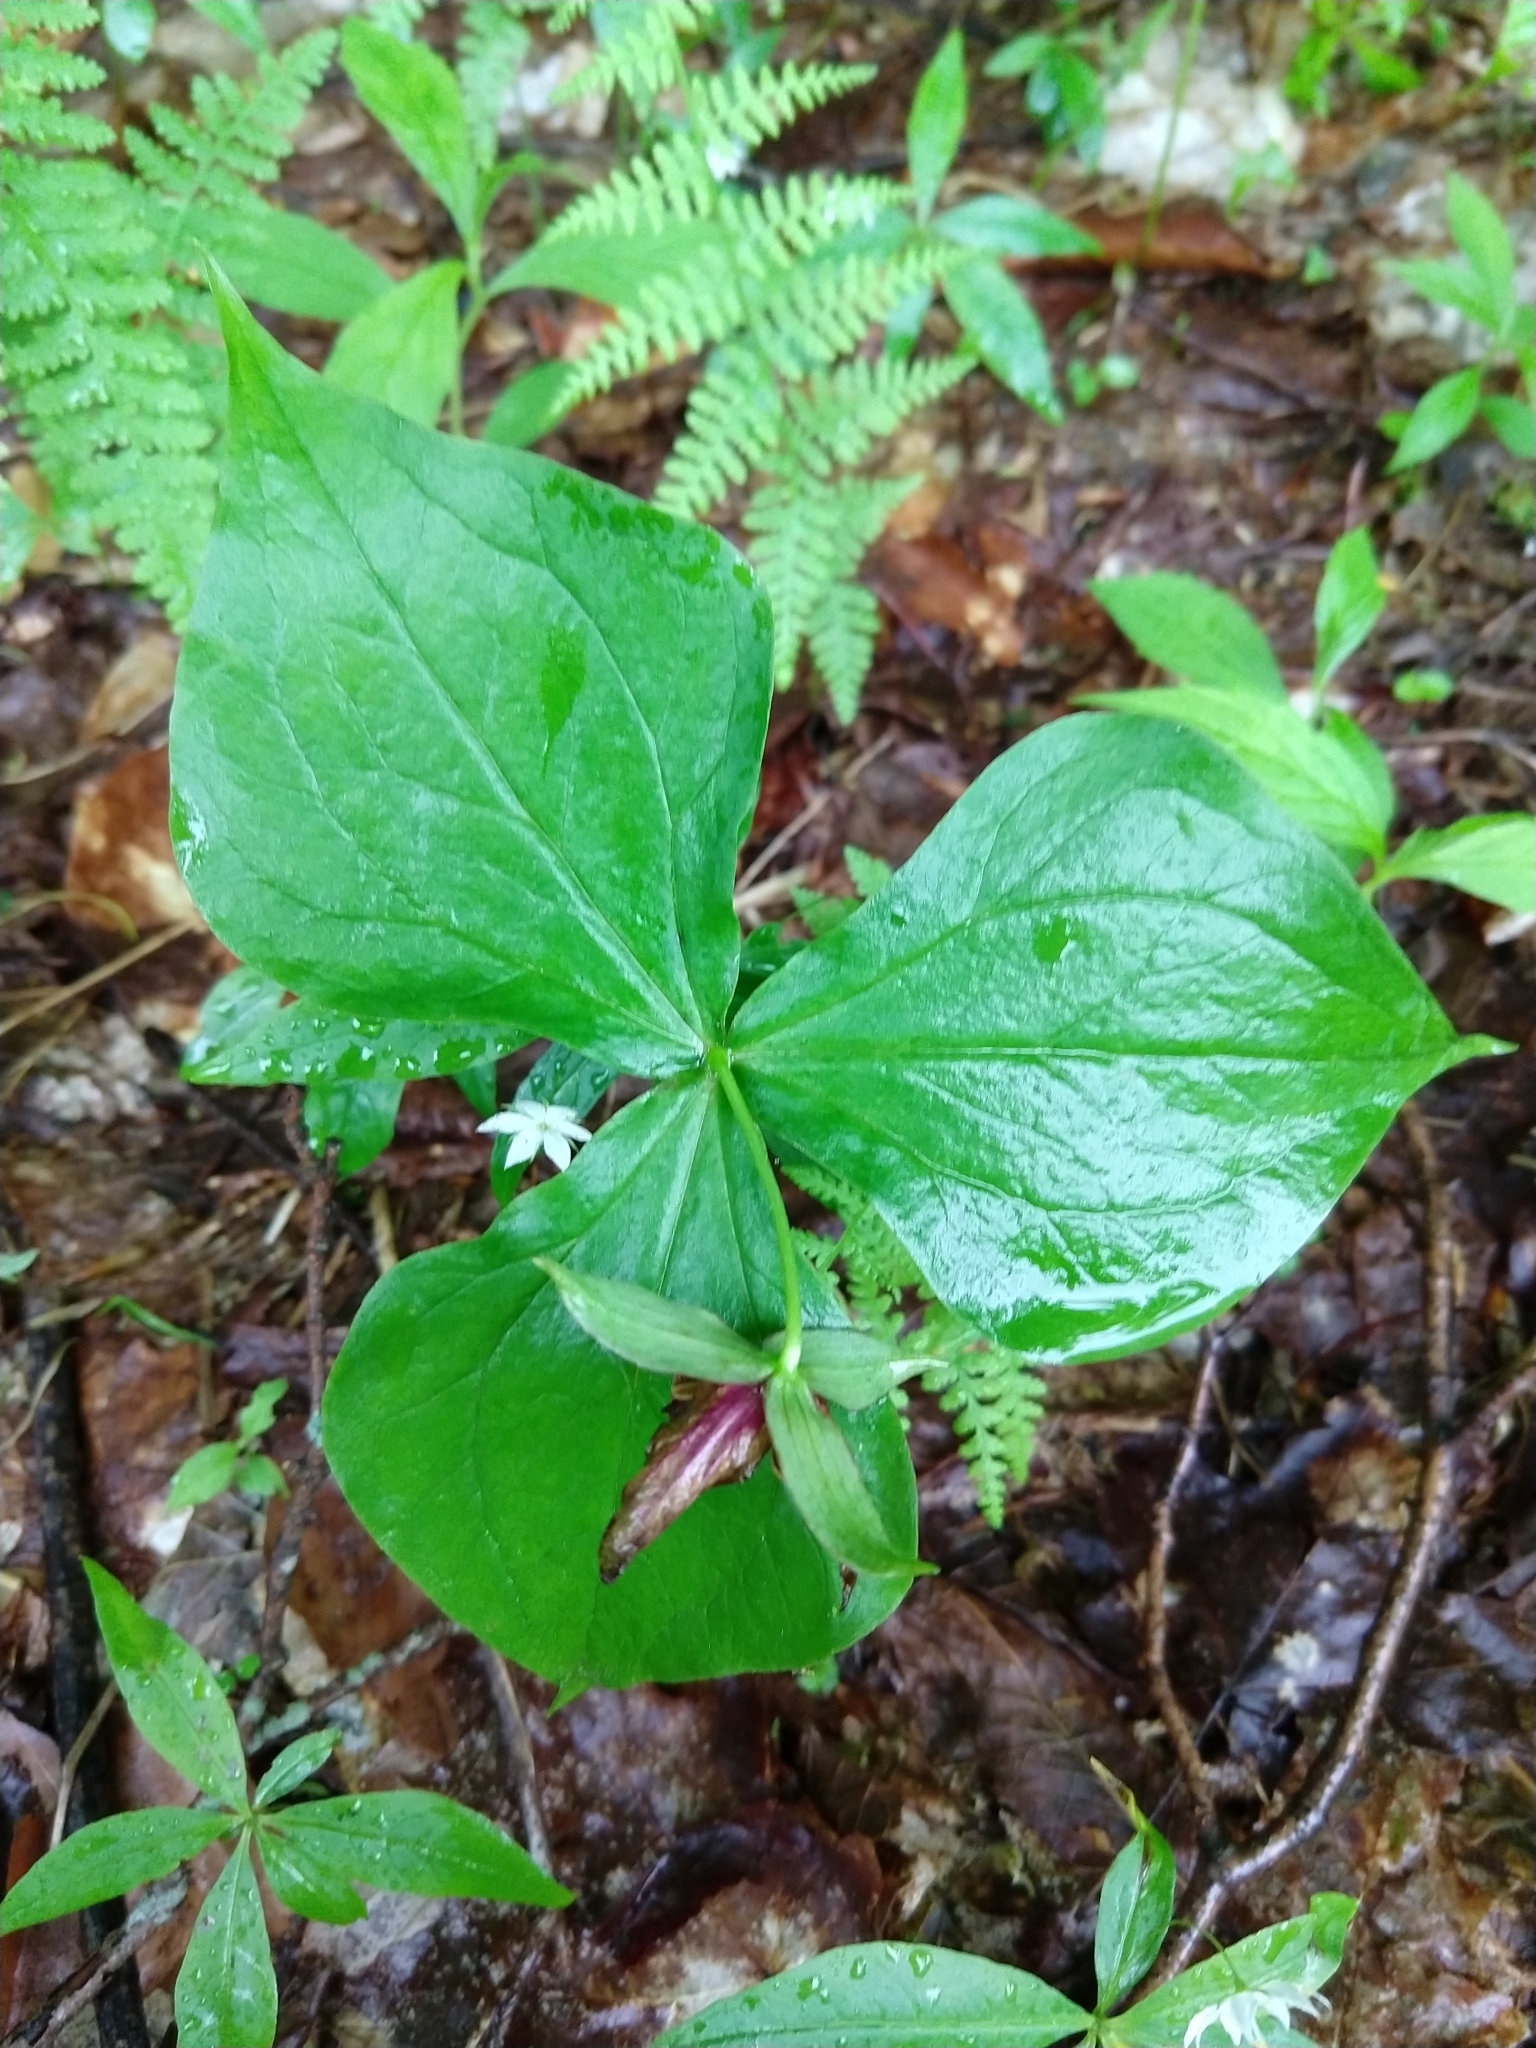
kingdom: Plantae
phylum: Tracheophyta
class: Liliopsida
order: Liliales
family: Melanthiaceae
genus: Trillium
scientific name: Trillium erectum
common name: Purple trillium
